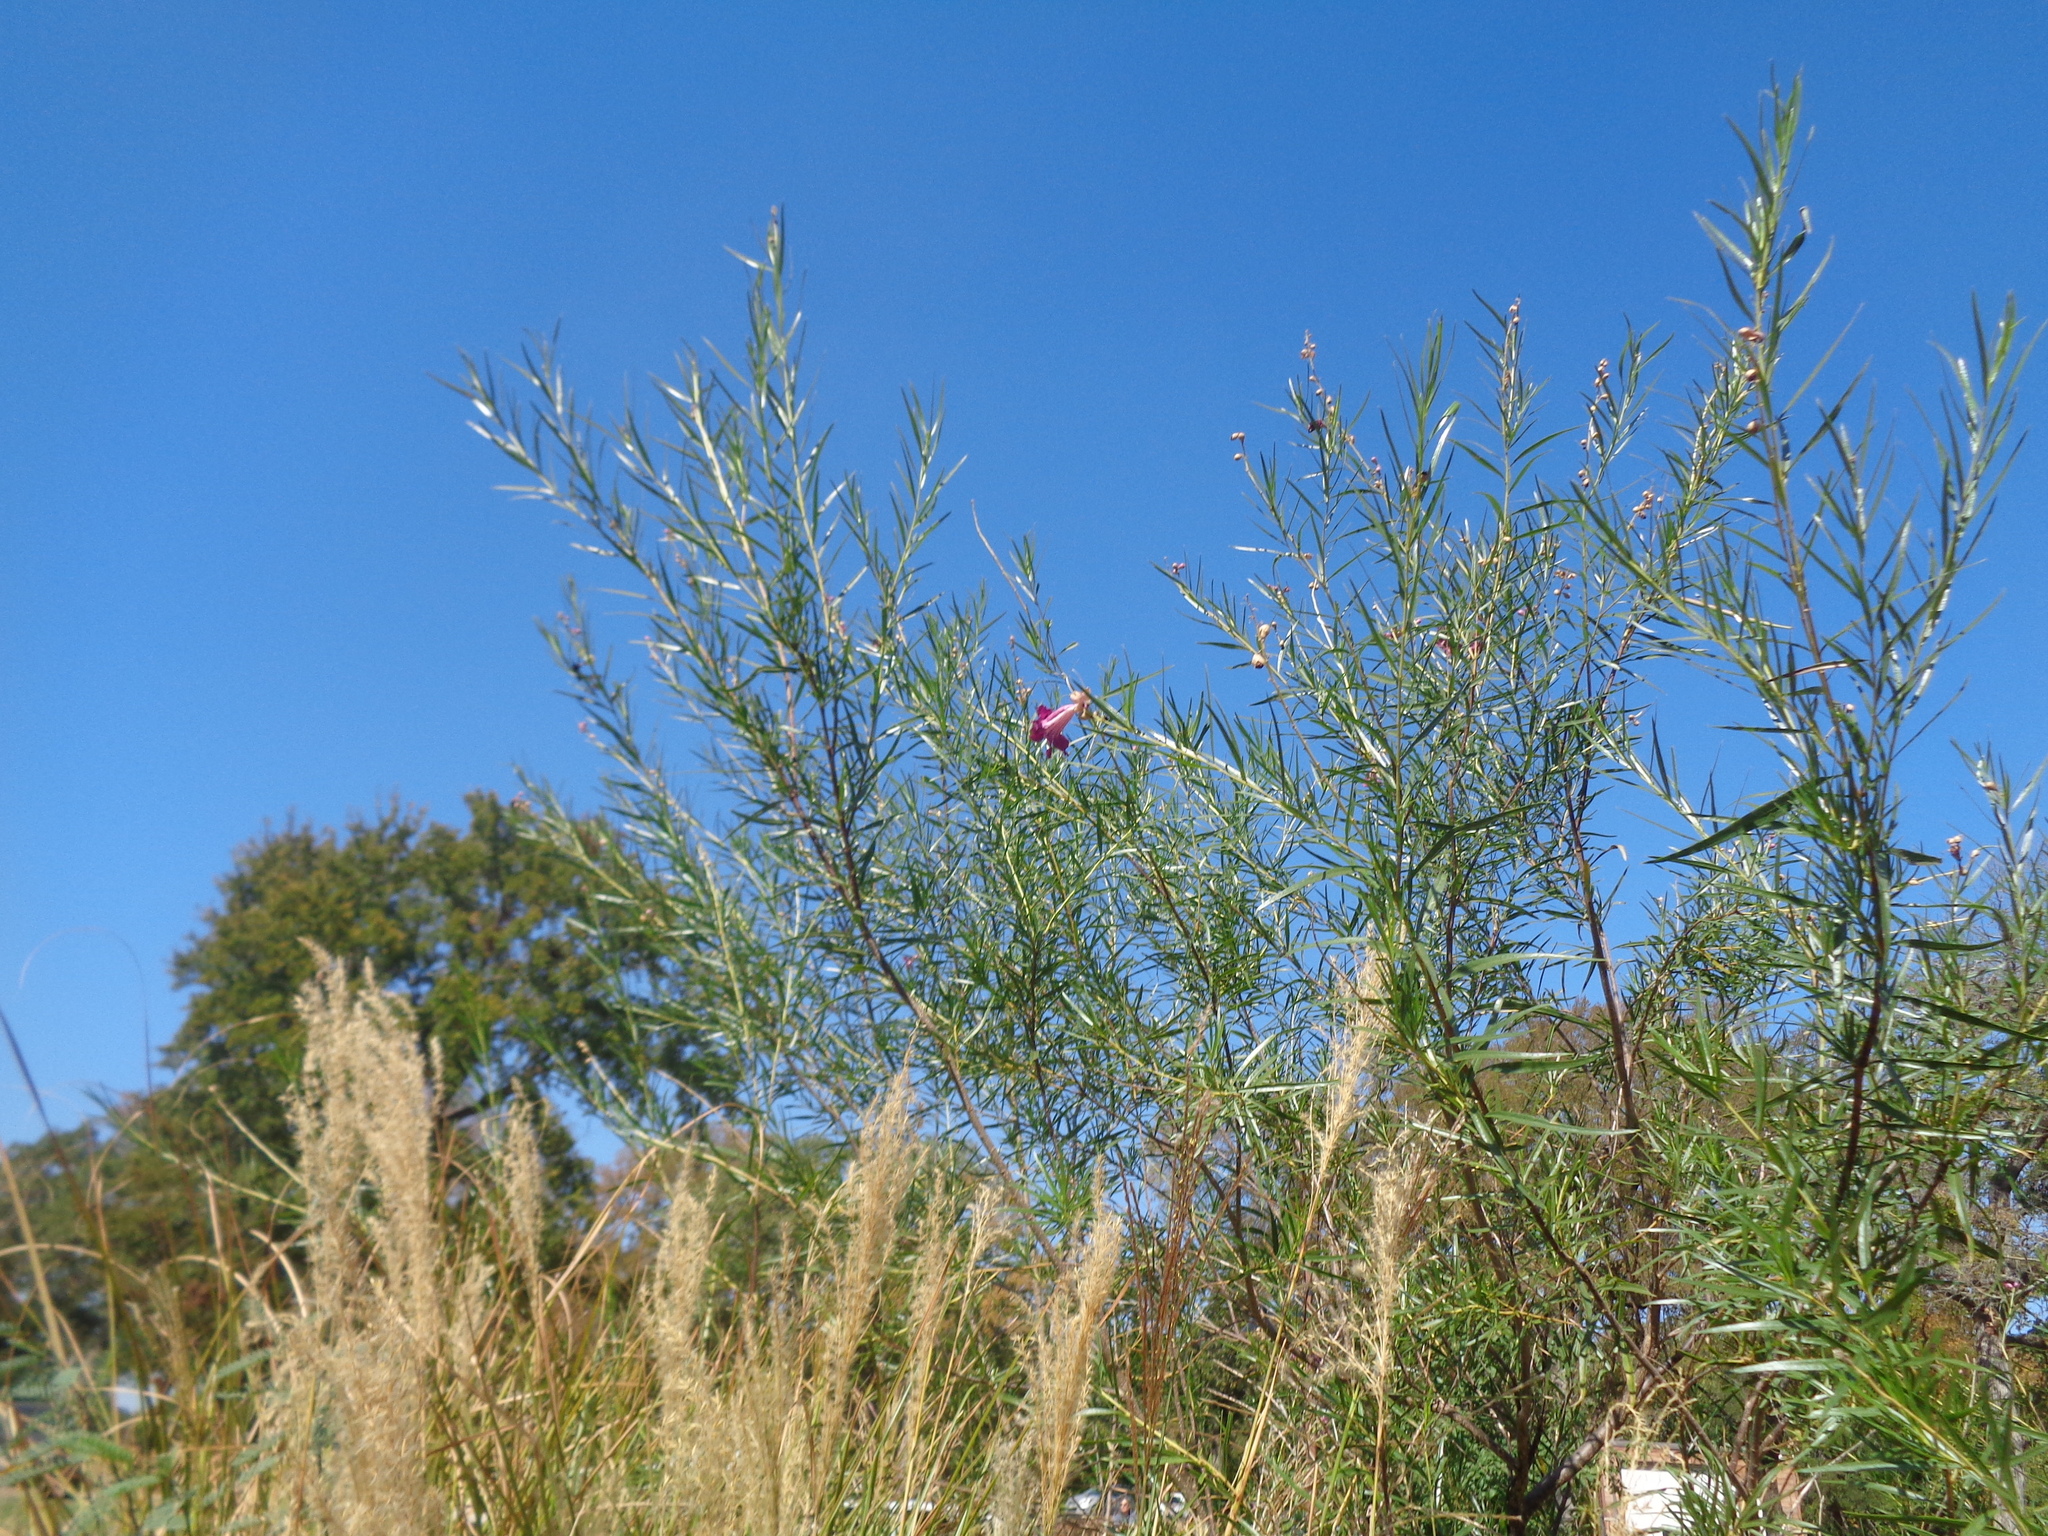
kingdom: Plantae
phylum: Tracheophyta
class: Magnoliopsida
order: Lamiales
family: Bignoniaceae
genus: Chilopsis
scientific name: Chilopsis linearis
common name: Desert-willow
